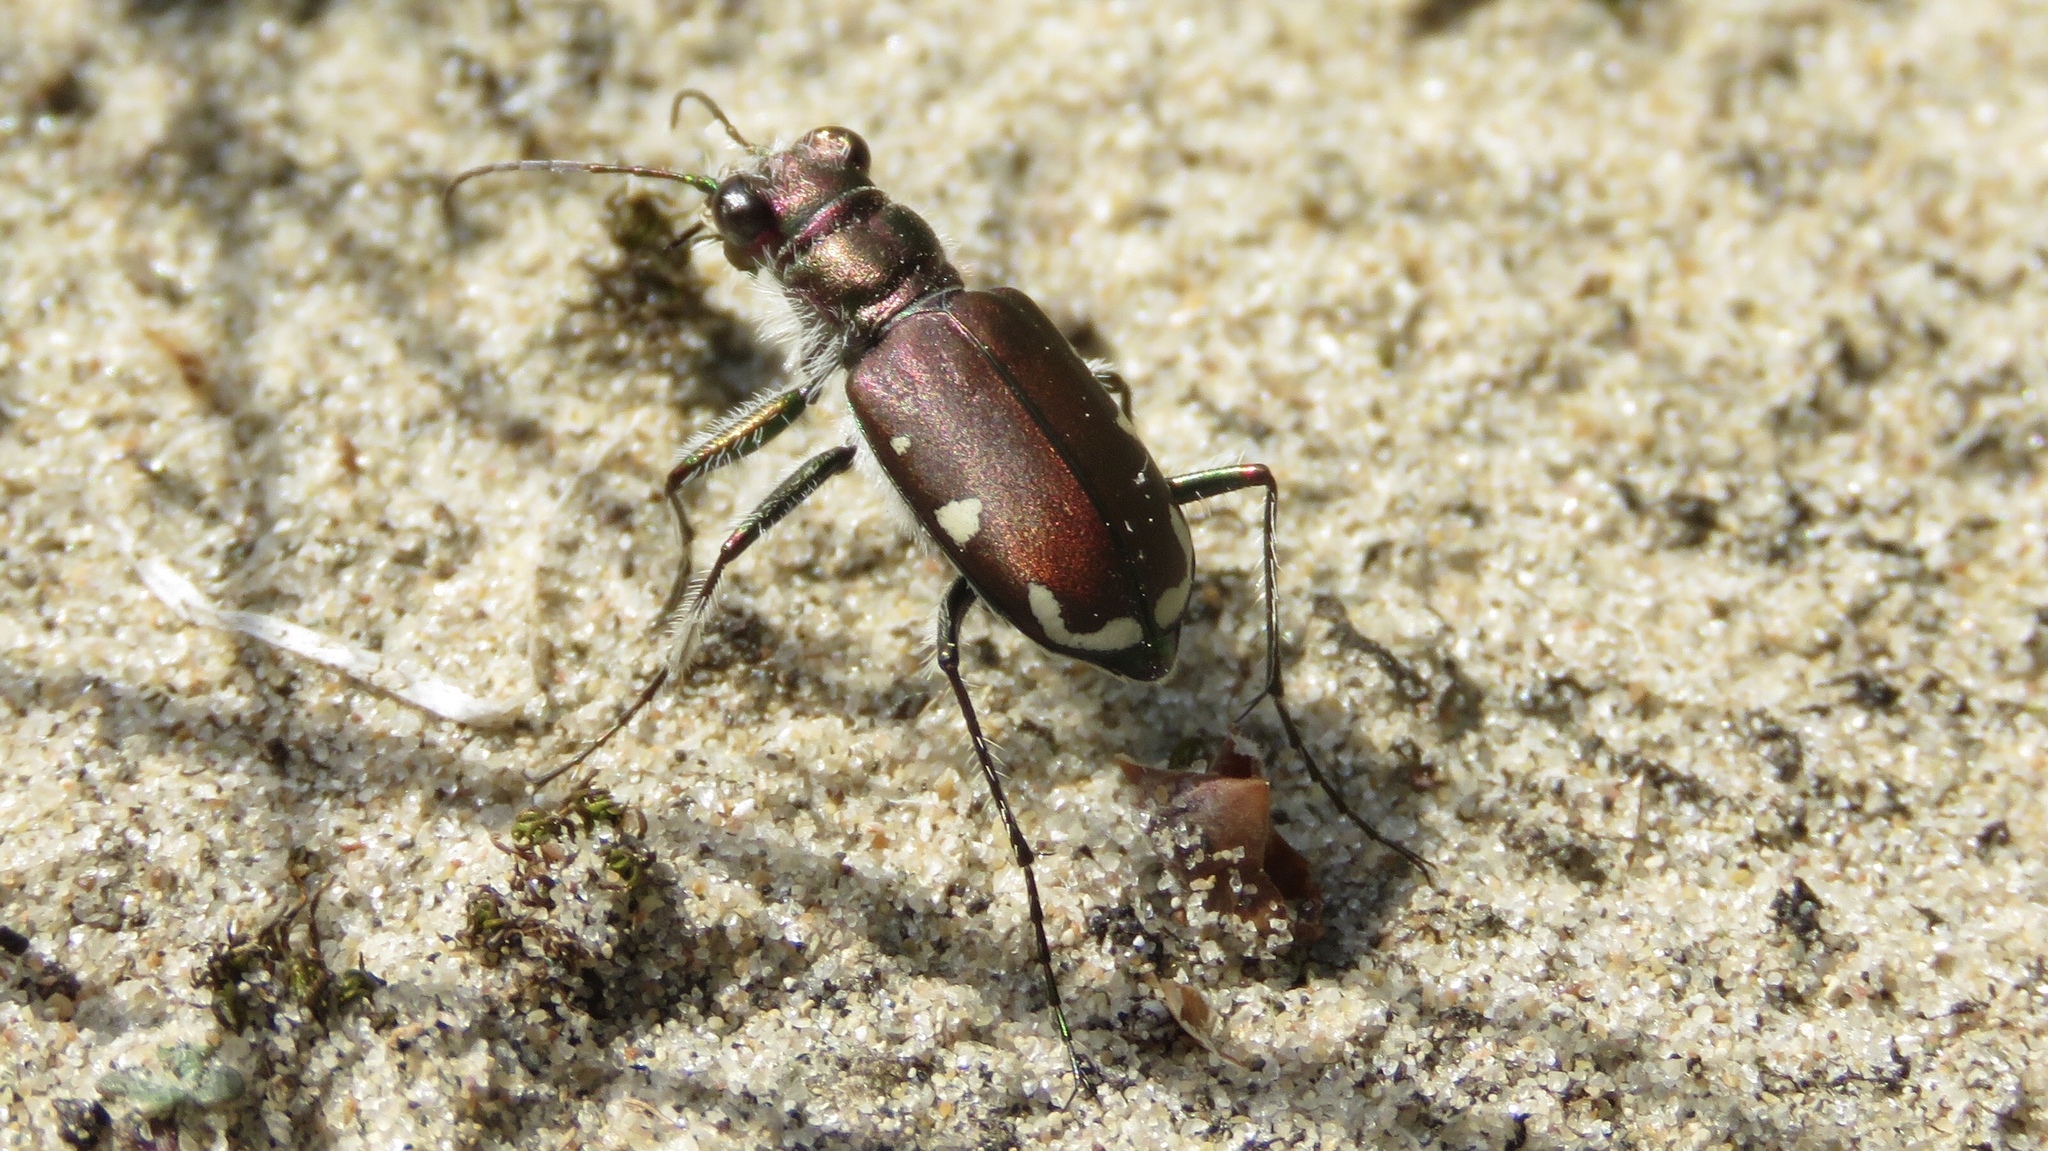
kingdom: Animalia
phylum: Arthropoda
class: Insecta
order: Coleoptera
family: Carabidae
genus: Cicindela
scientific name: Cicindela scutellaris
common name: Festive tiger beetle
